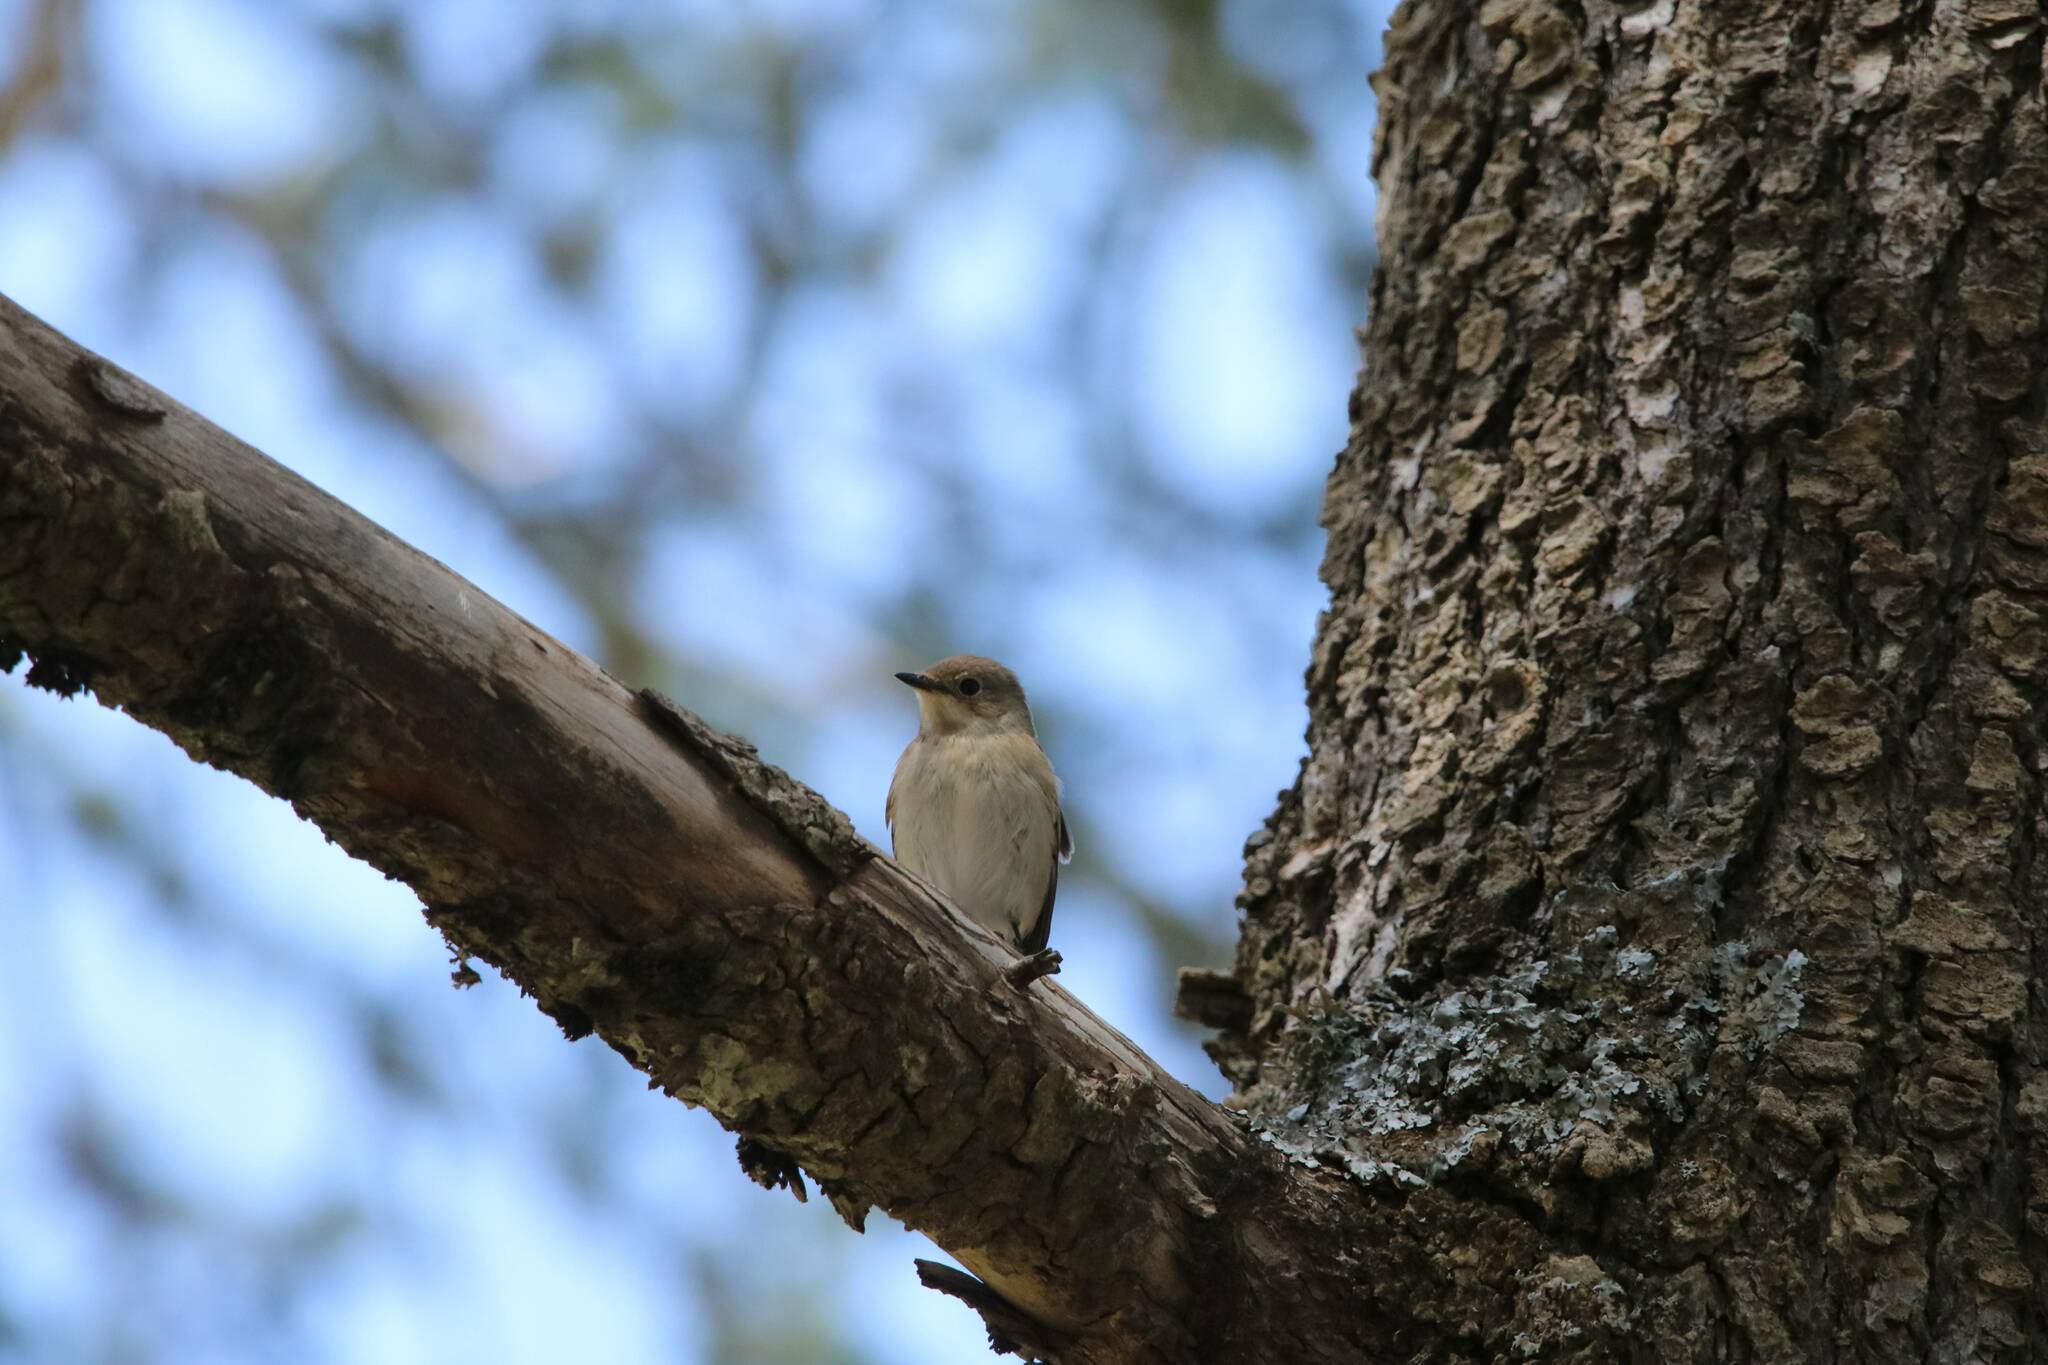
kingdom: Animalia
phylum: Chordata
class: Aves
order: Passeriformes
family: Muscicapidae
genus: Ficedula
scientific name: Ficedula speculigera
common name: Atlas pied flycatcher
